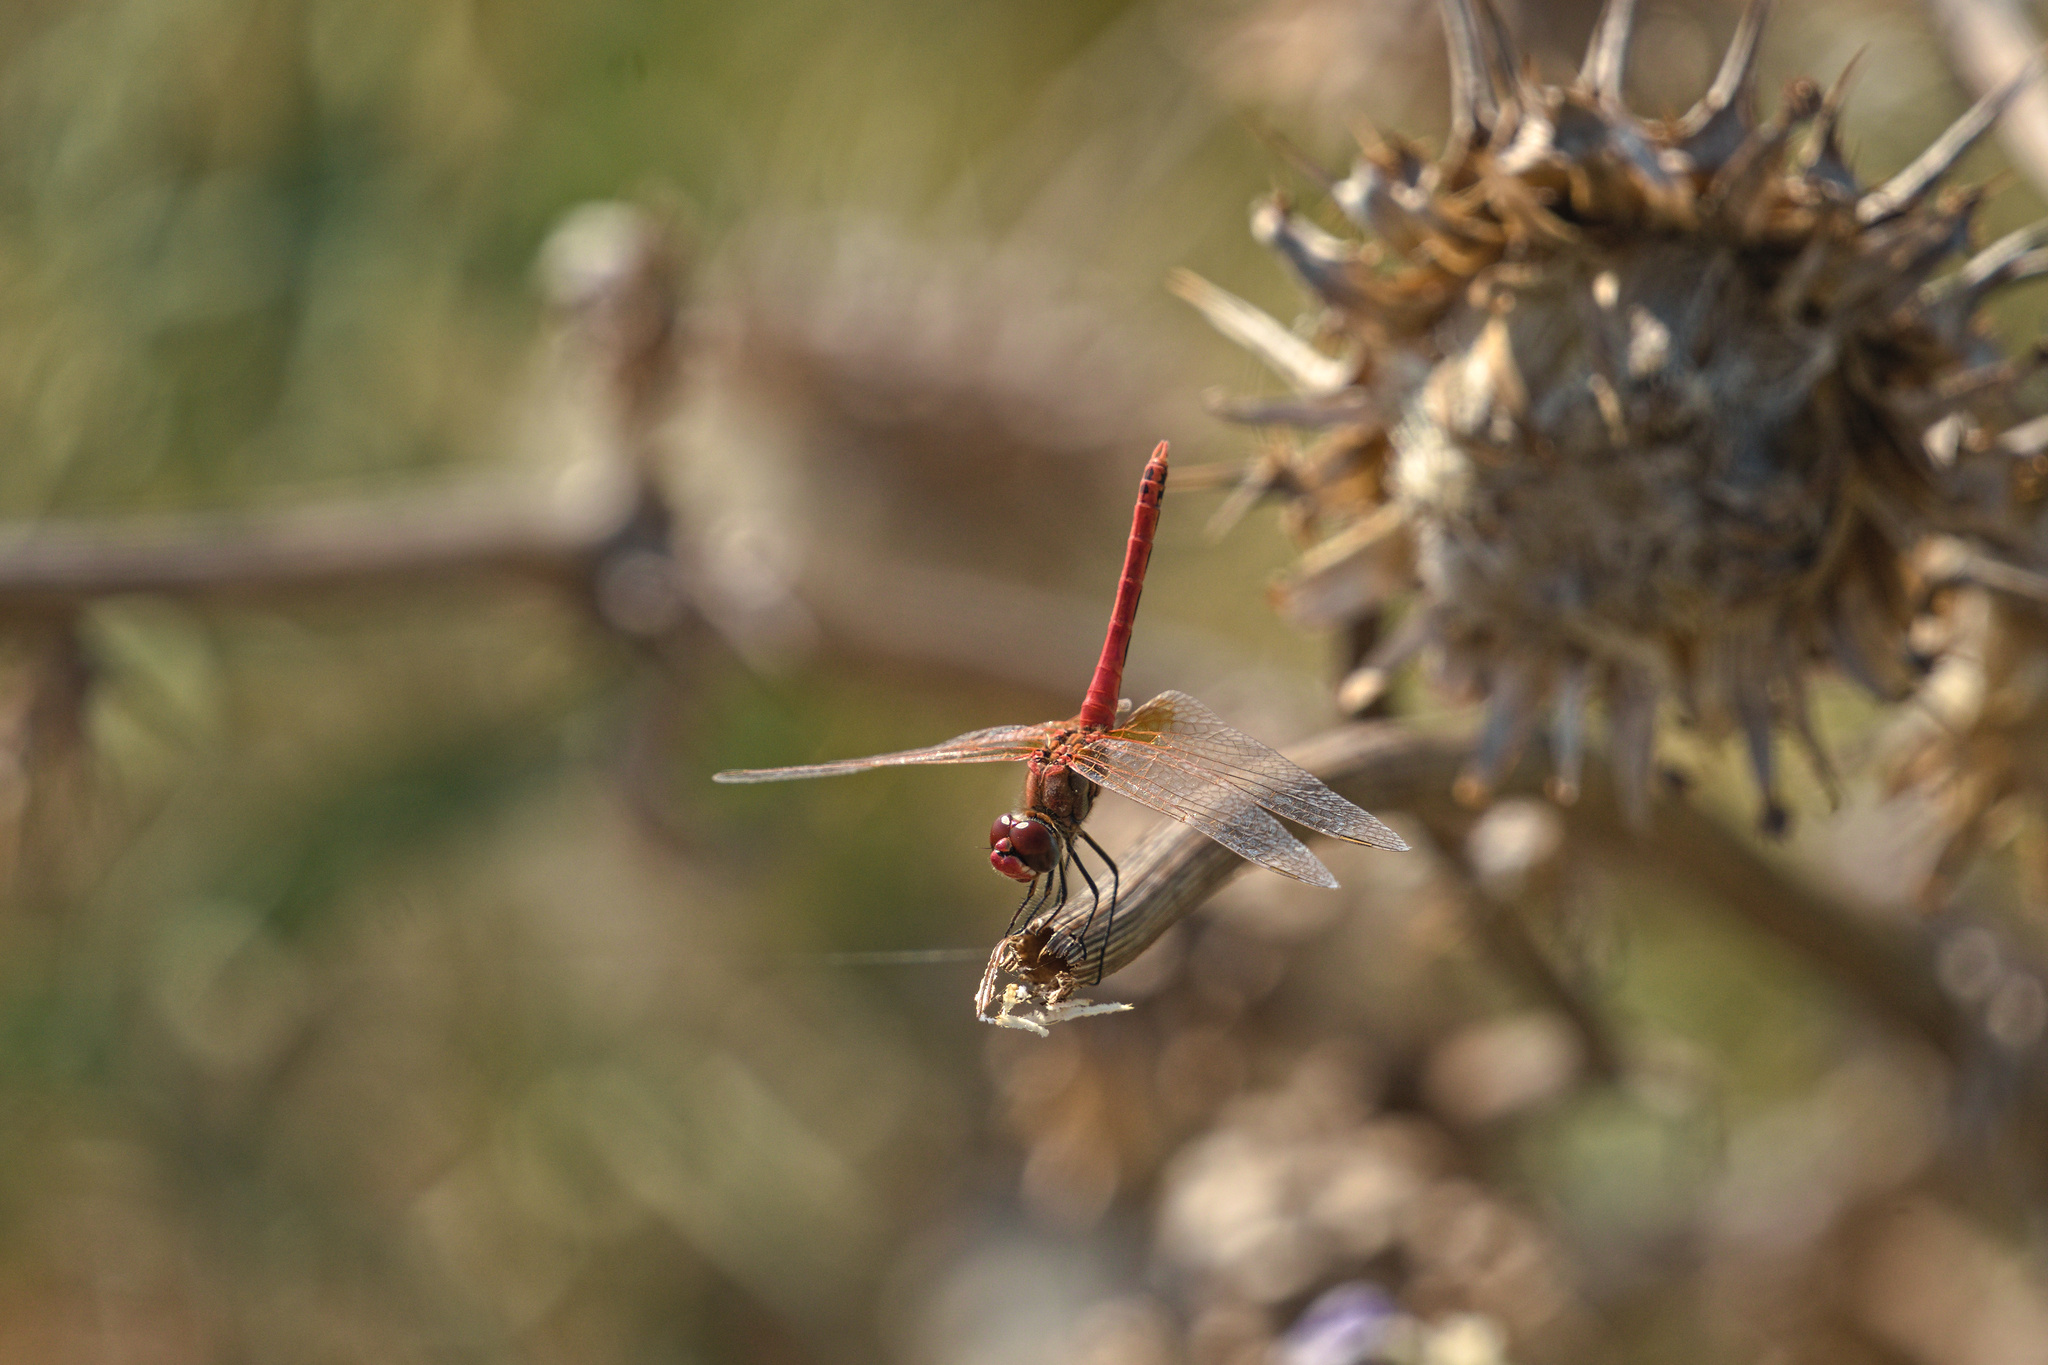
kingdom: Animalia
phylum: Arthropoda
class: Insecta
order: Odonata
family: Libellulidae
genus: Sympetrum
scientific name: Sympetrum fonscolombii
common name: Red-veined darter
